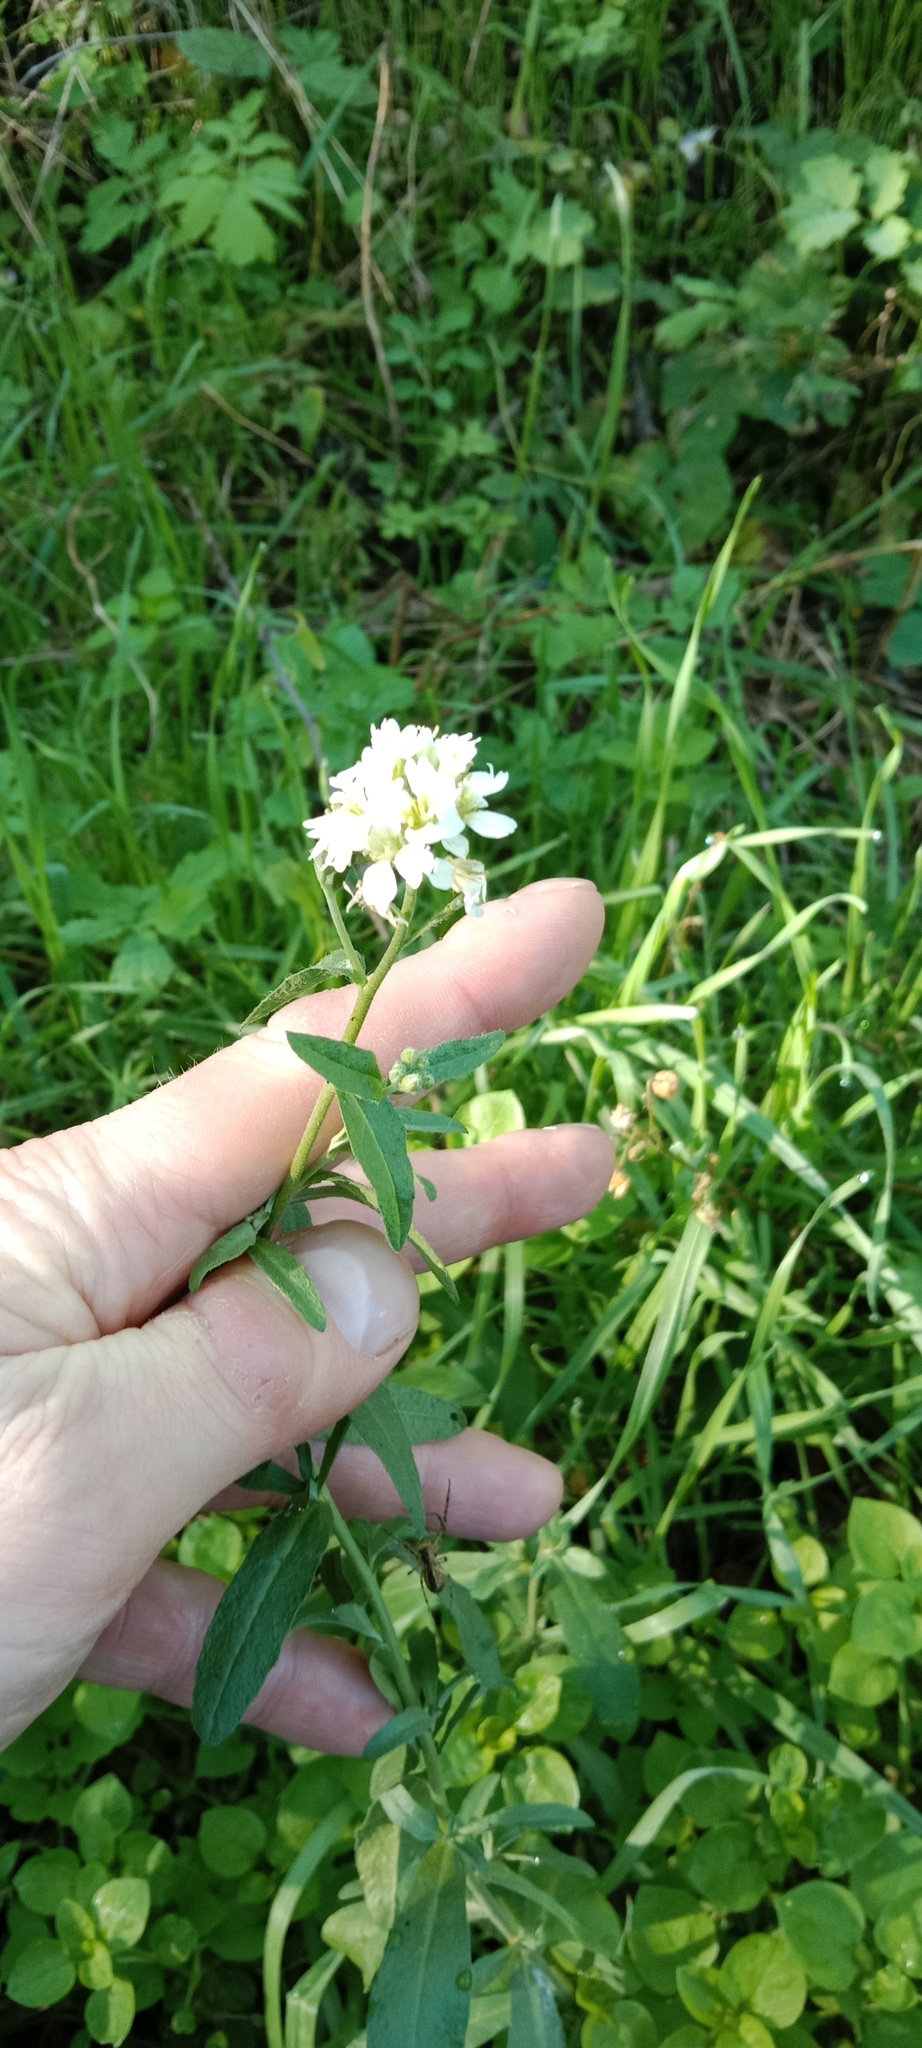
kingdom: Plantae
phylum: Tracheophyta
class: Magnoliopsida
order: Brassicales
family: Brassicaceae
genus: Berteroa
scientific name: Berteroa incana
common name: Hoary alison
